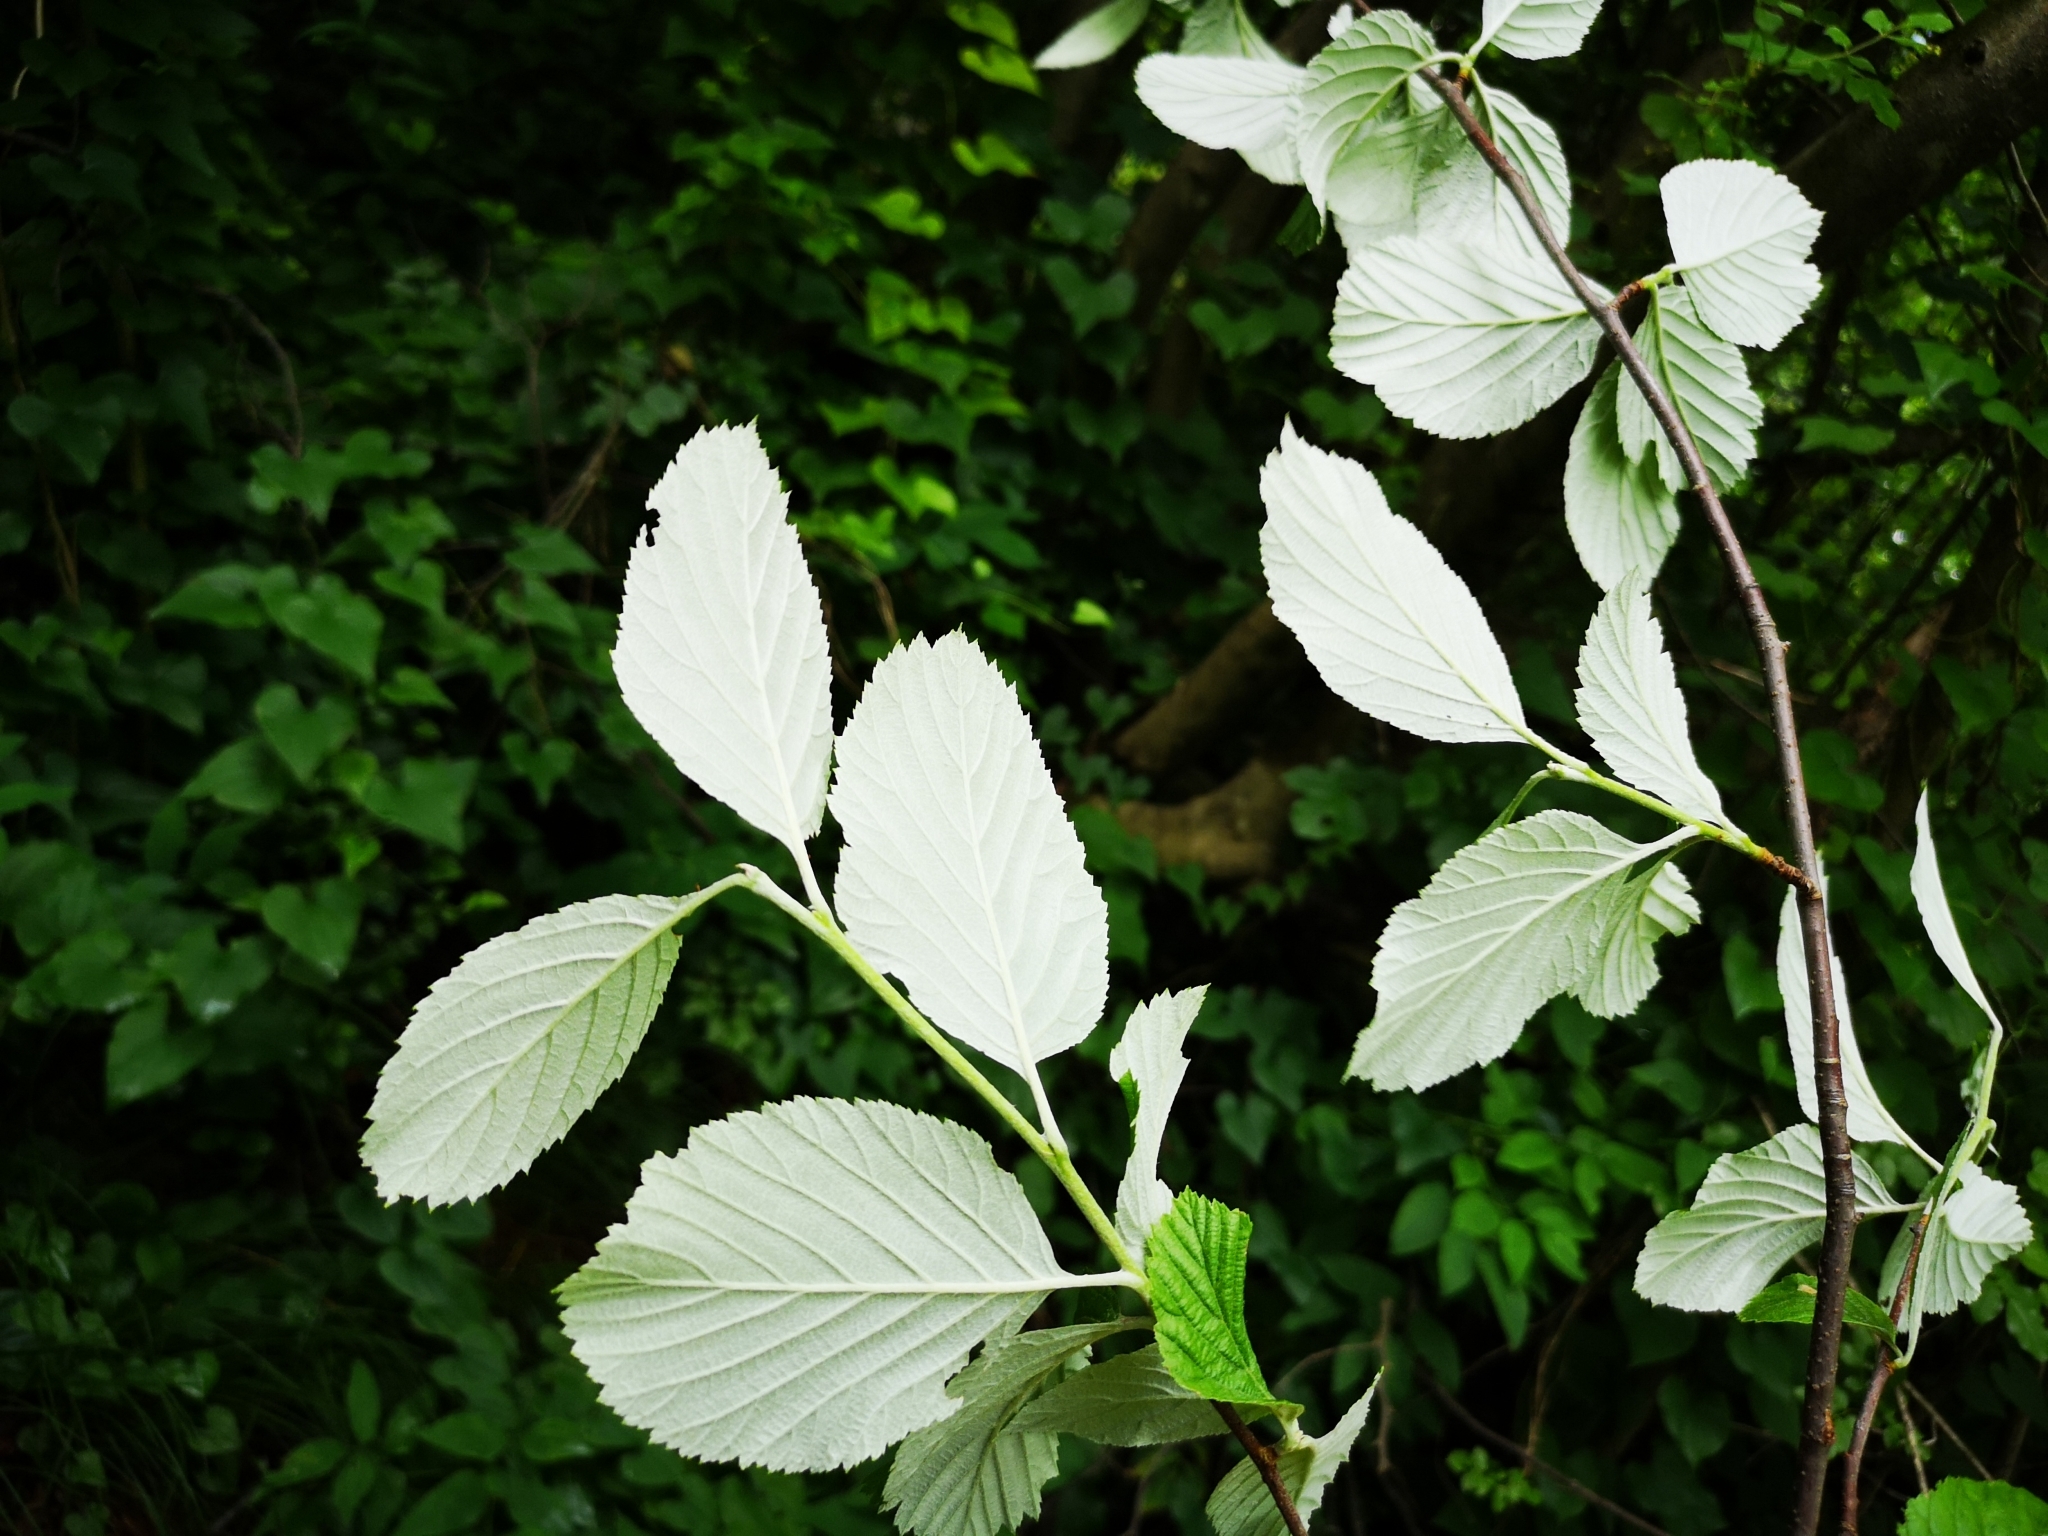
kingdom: Plantae
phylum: Tracheophyta
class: Magnoliopsida
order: Rosales
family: Rosaceae
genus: Aria
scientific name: Aria edulis
